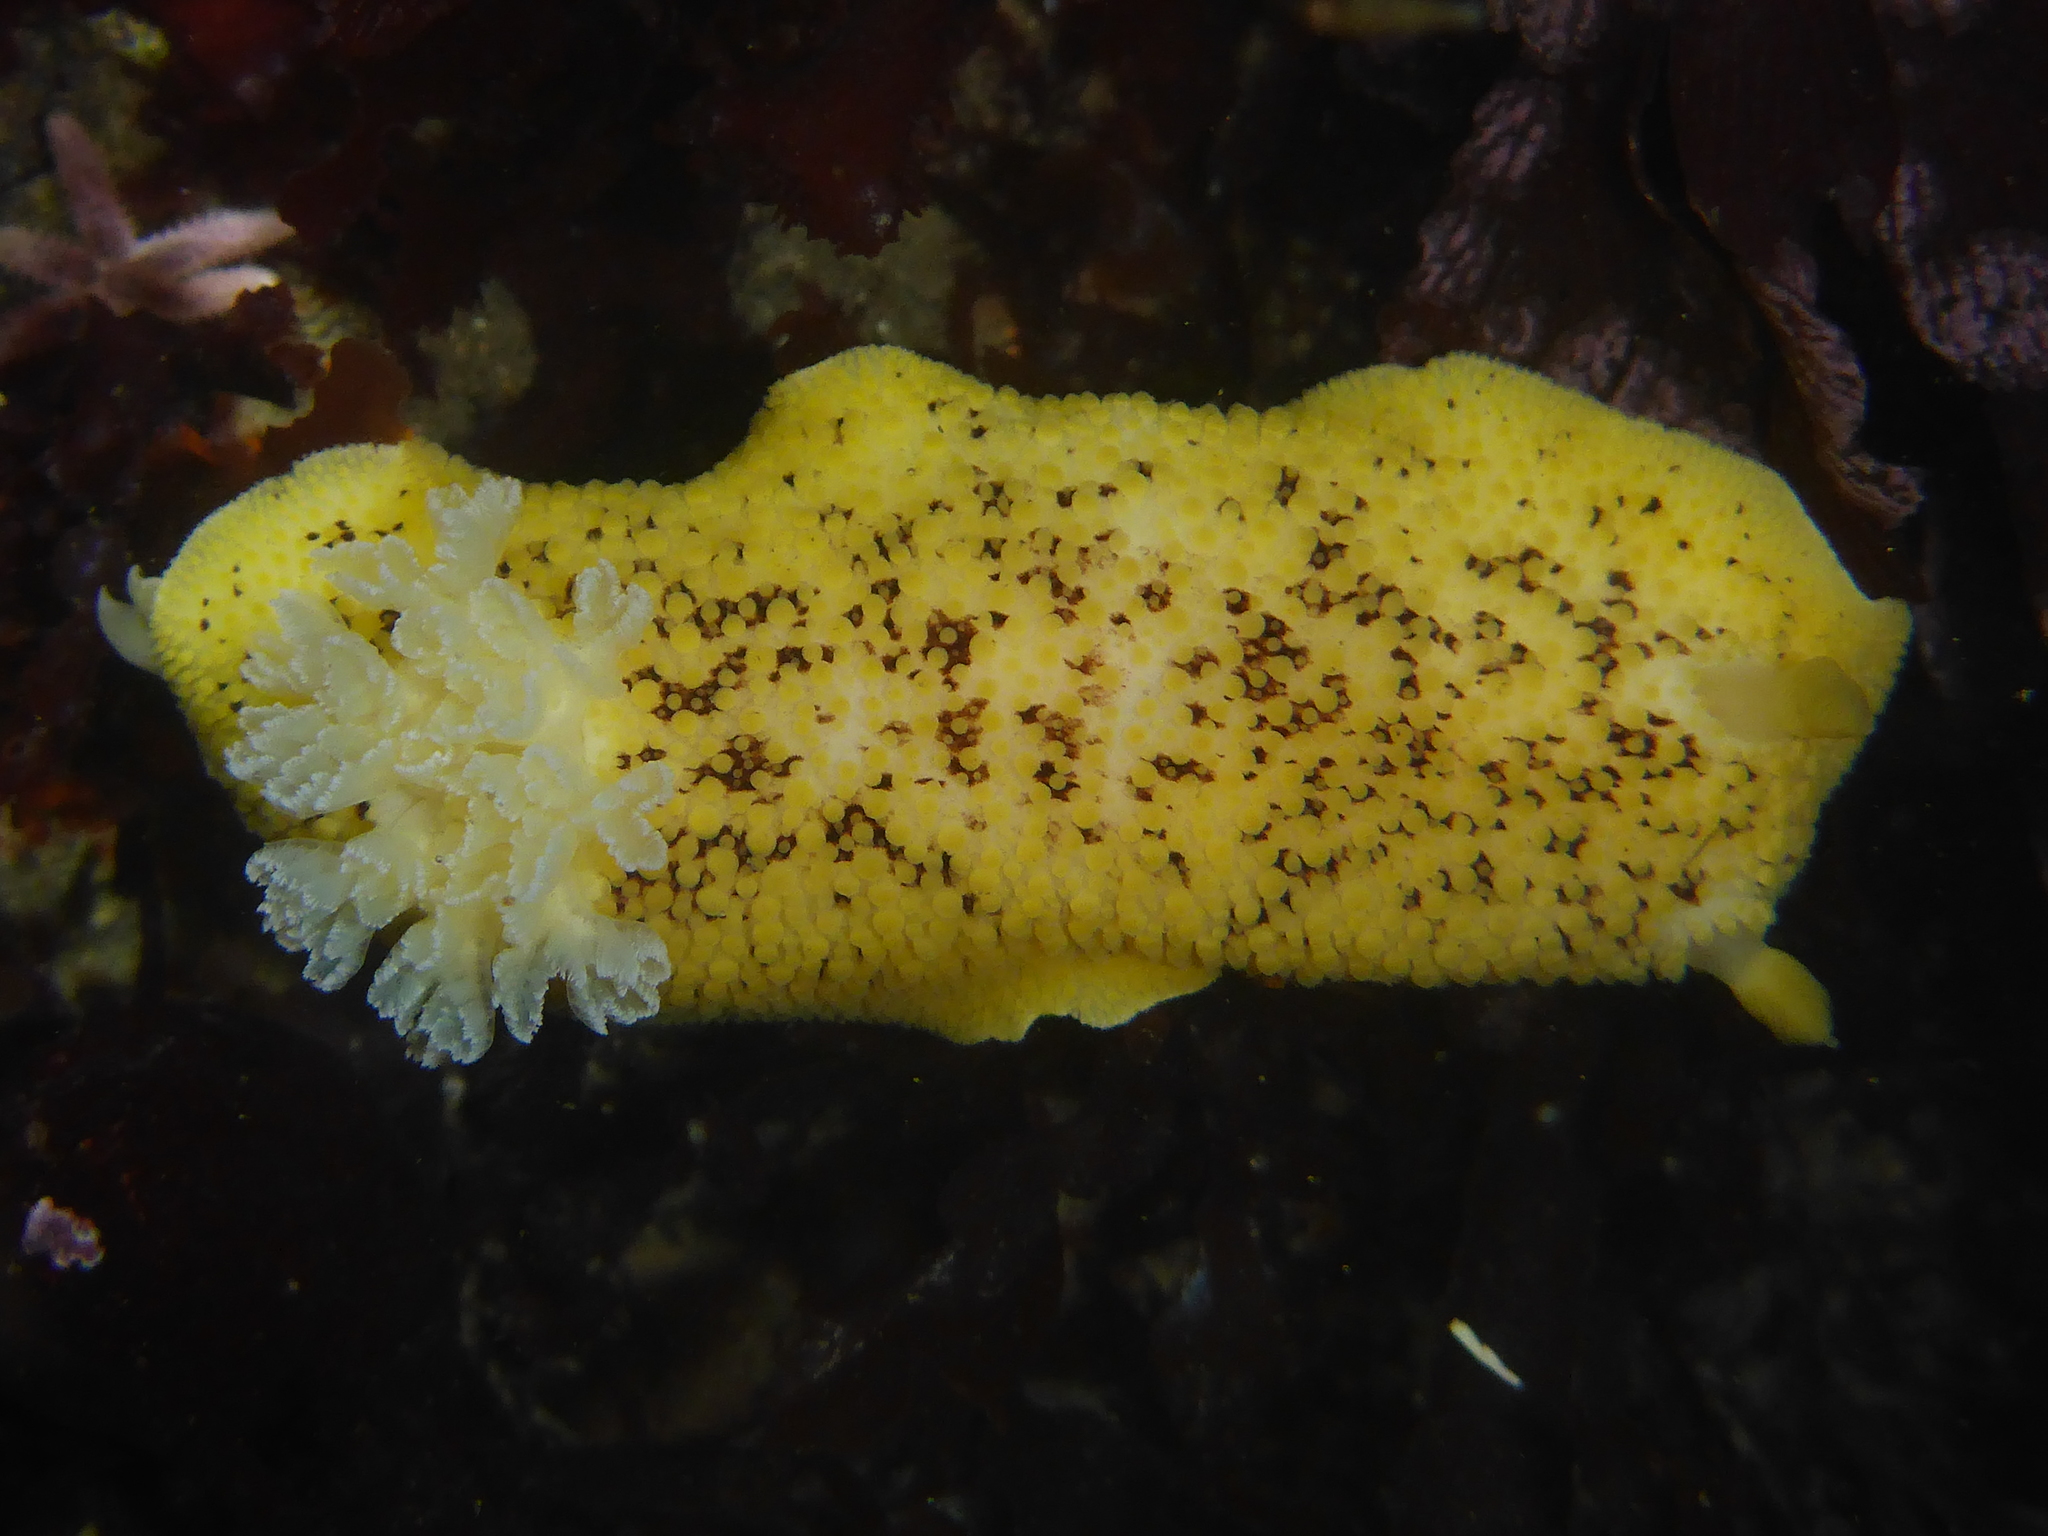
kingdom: Animalia
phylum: Mollusca
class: Gastropoda
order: Nudibranchia
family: Discodorididae
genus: Peltodoris
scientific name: Peltodoris nobilis
